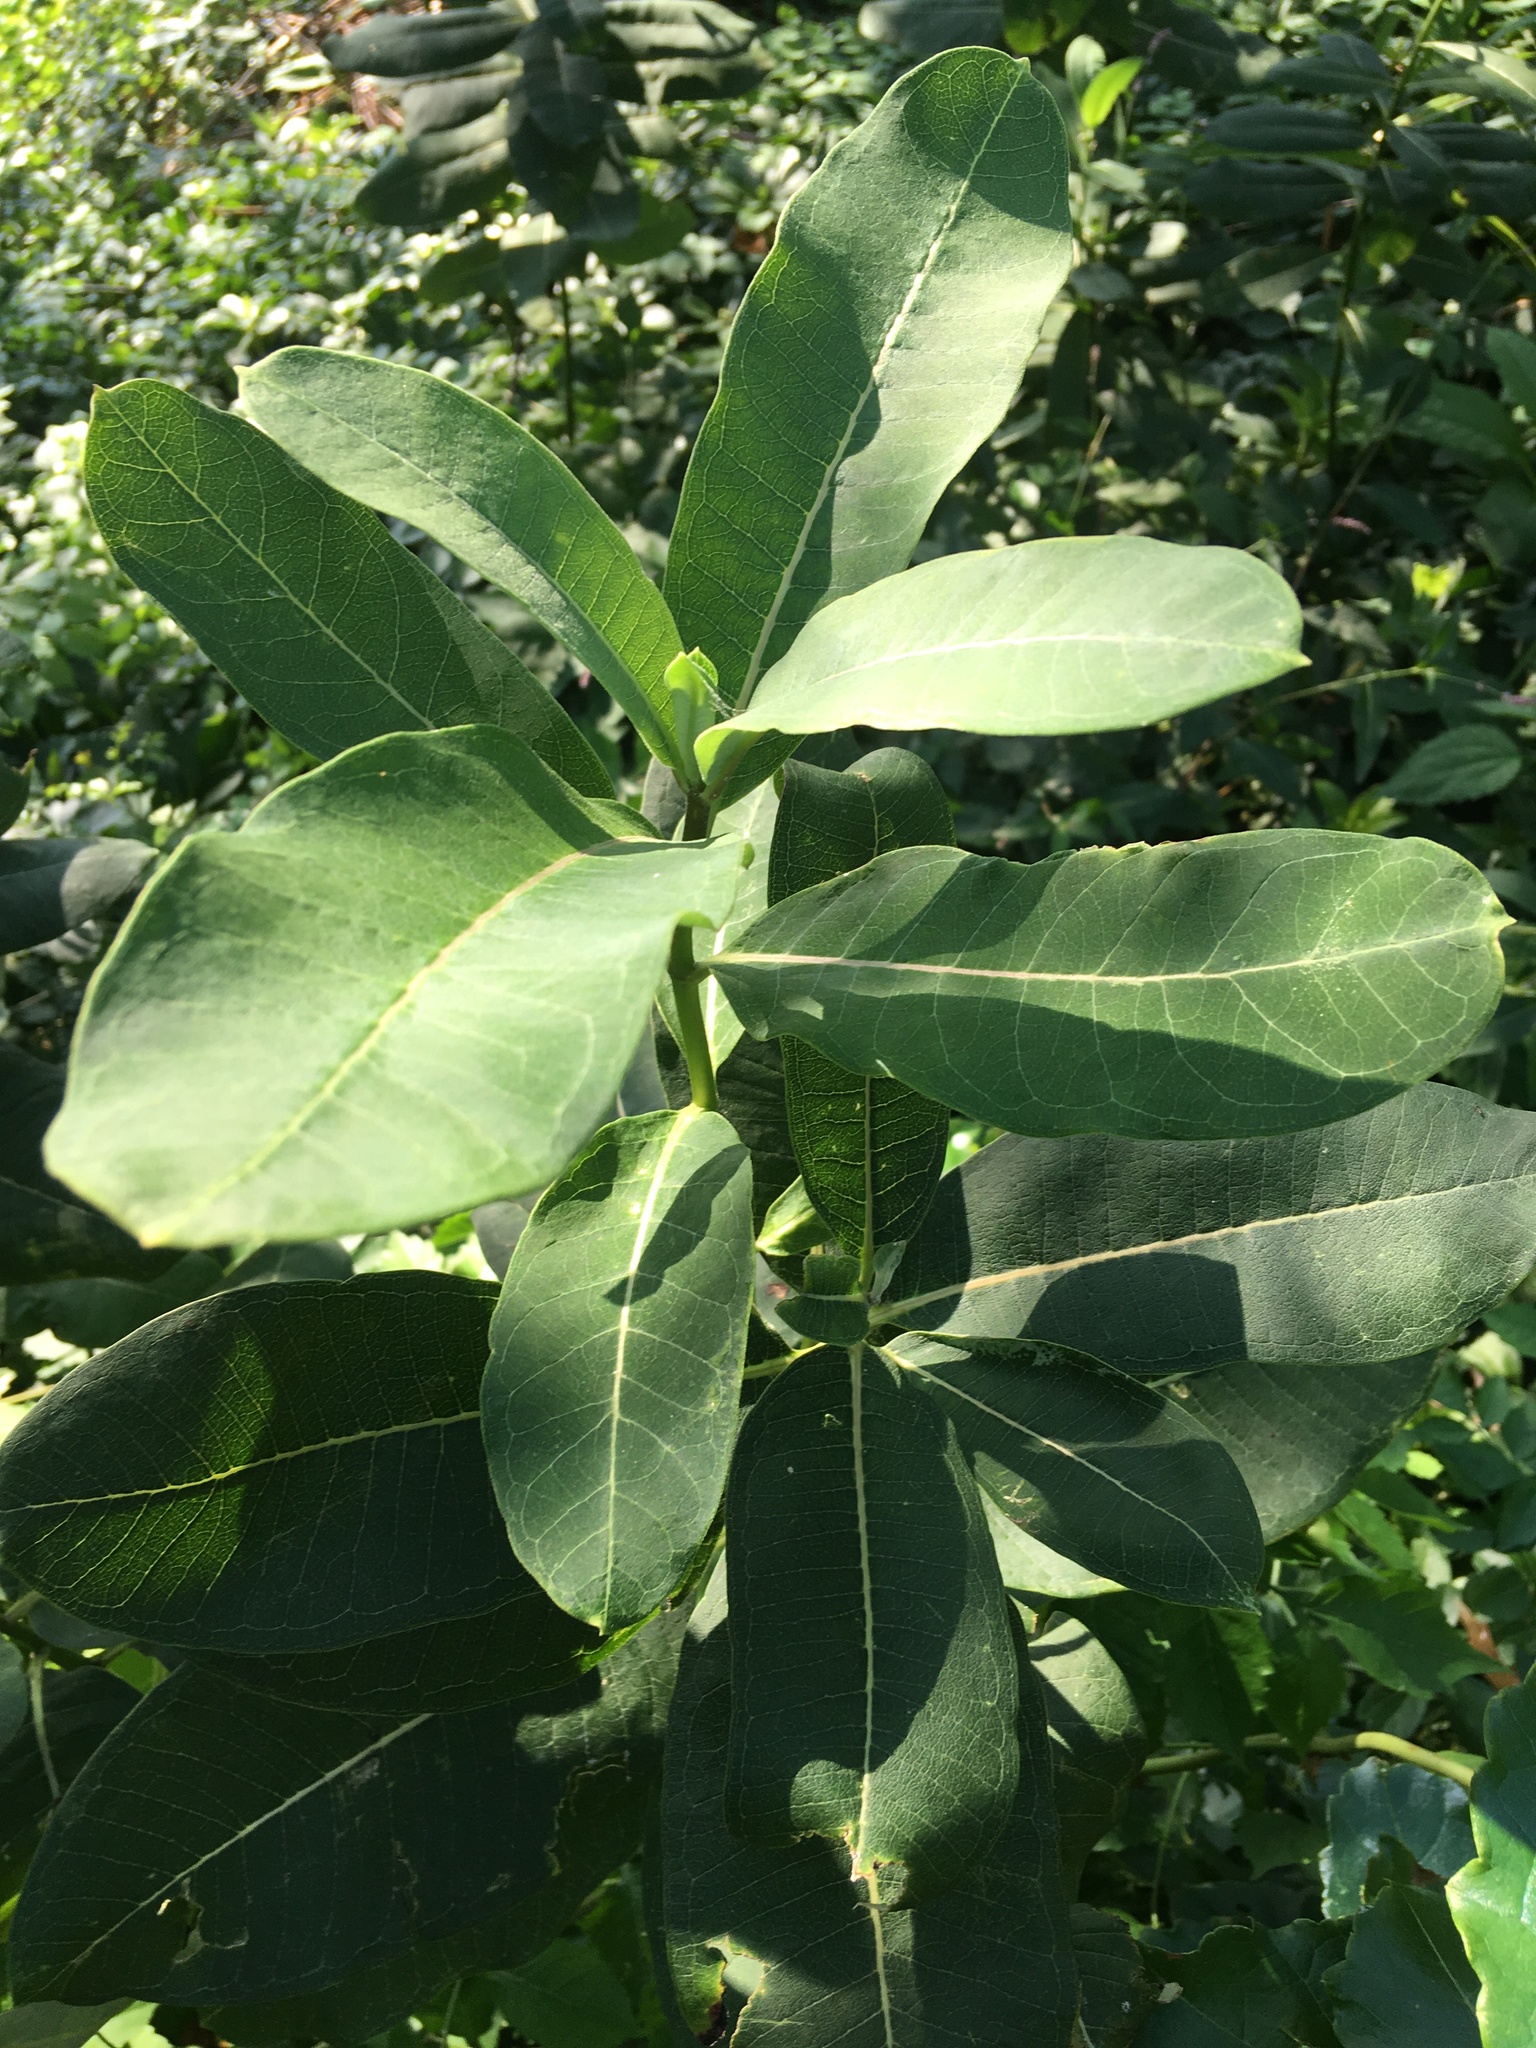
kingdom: Plantae
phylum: Tracheophyta
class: Magnoliopsida
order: Gentianales
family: Apocynaceae
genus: Asclepias
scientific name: Asclepias syriaca
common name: Common milkweed
